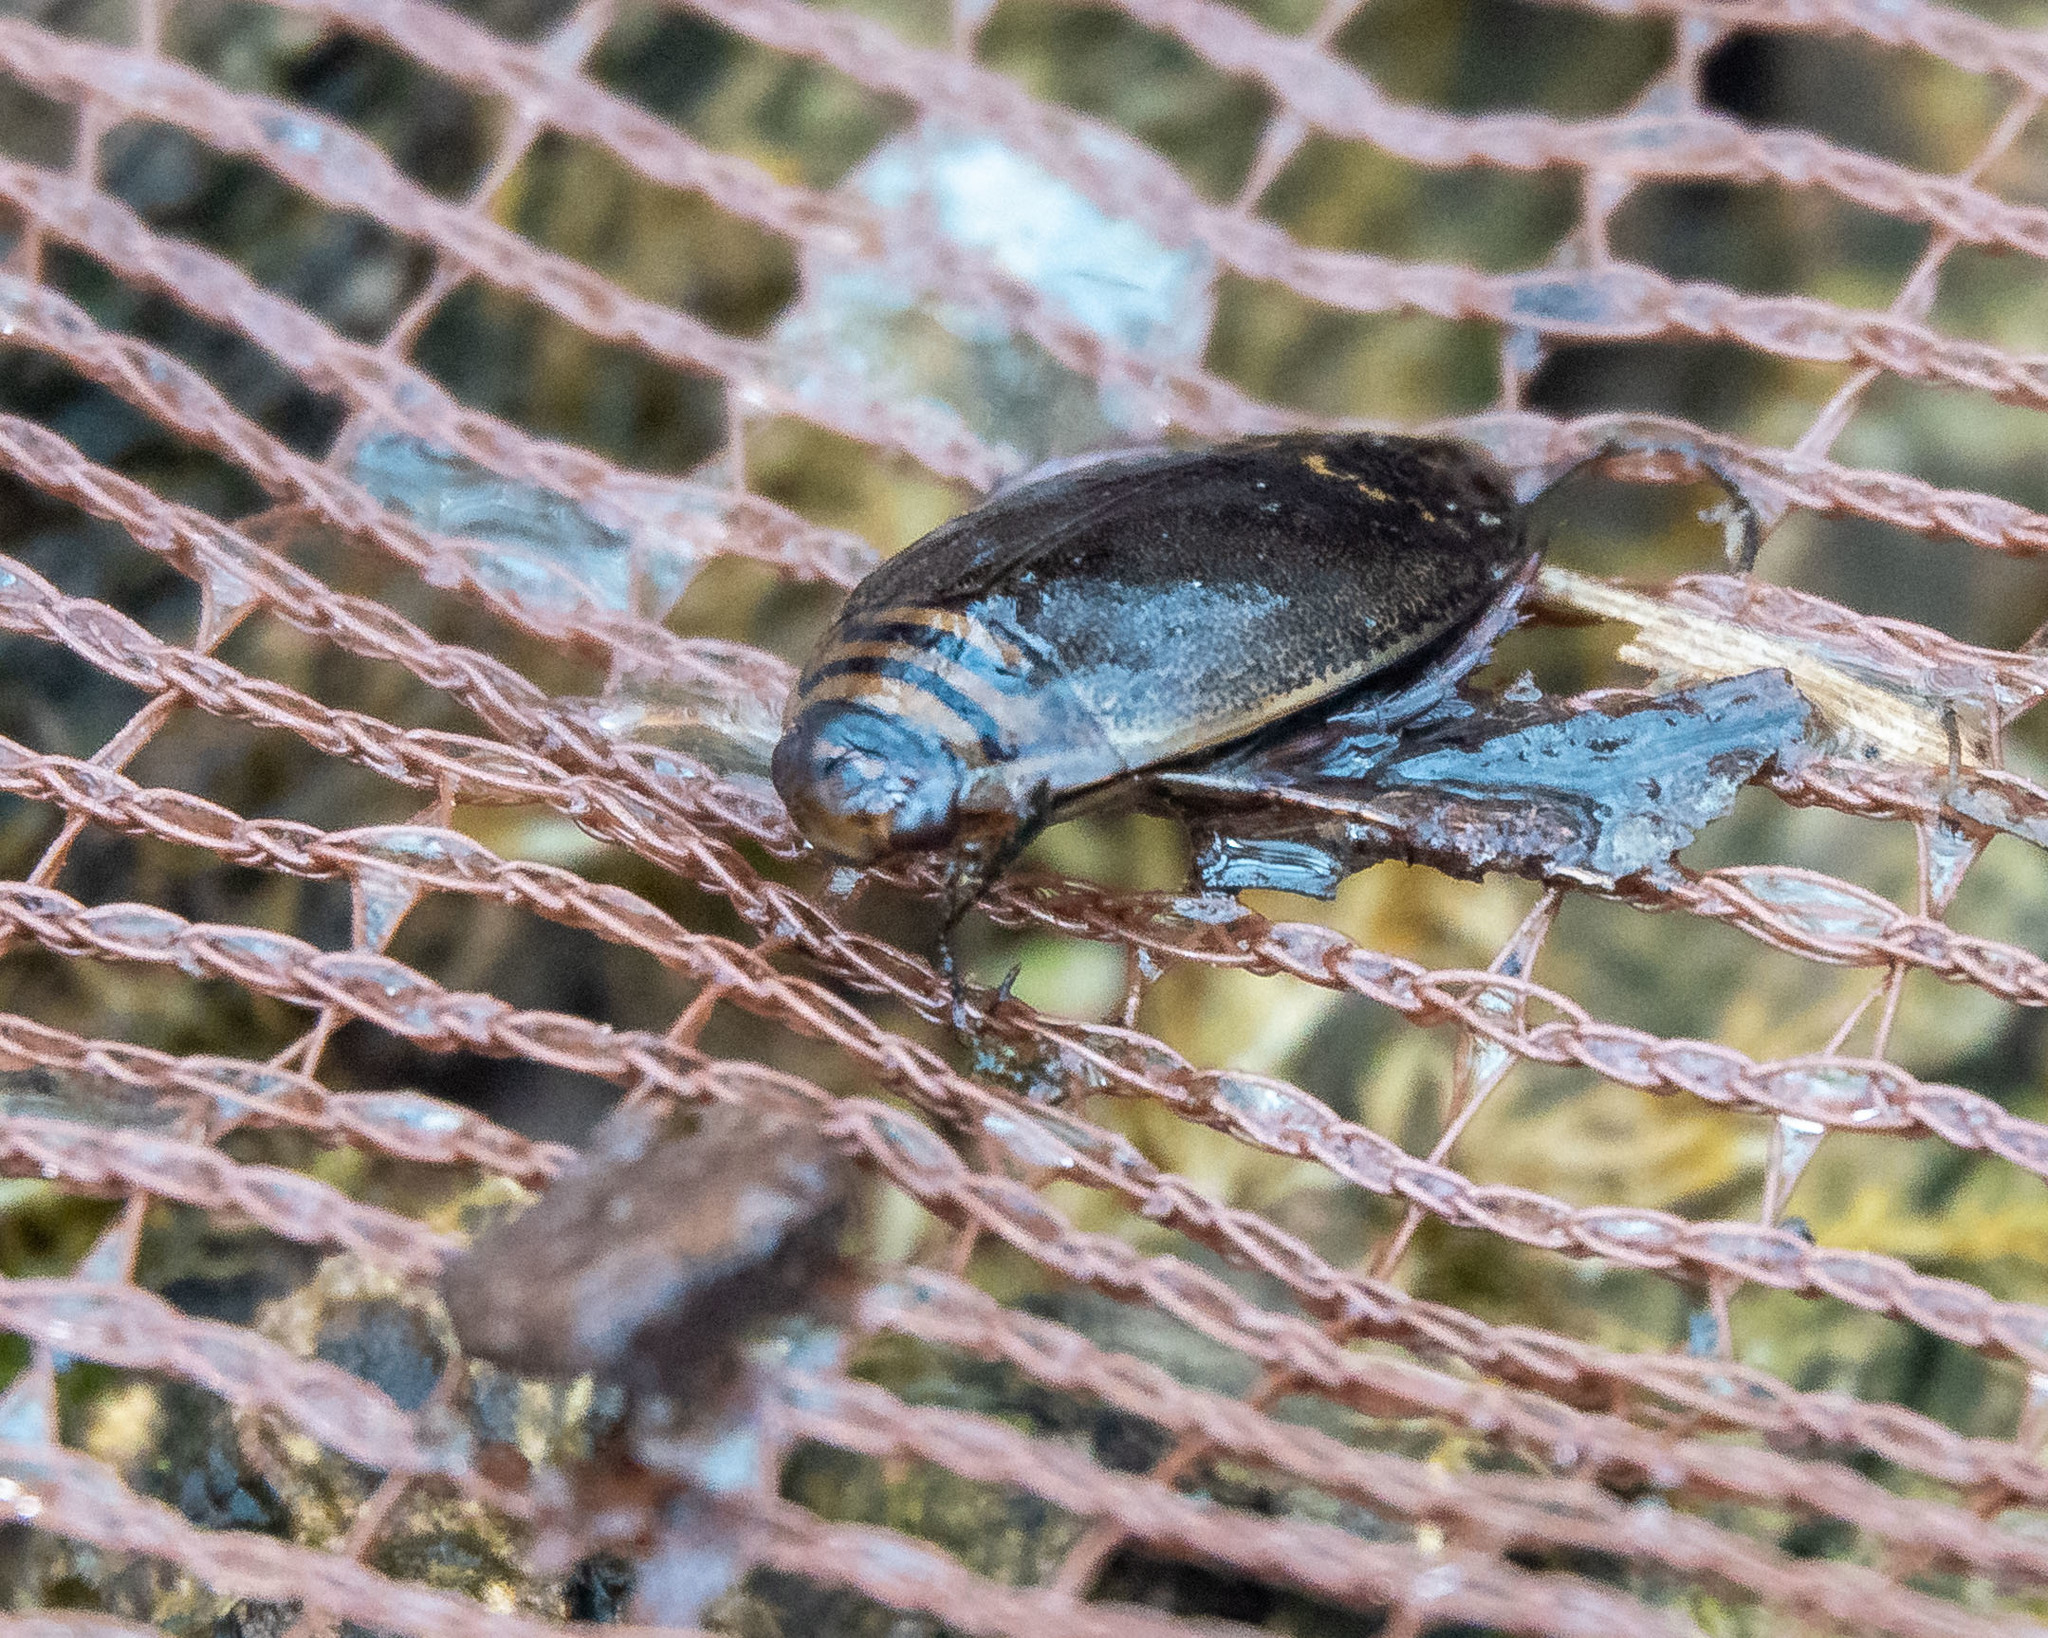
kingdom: Animalia
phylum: Arthropoda
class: Insecta
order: Coleoptera
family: Dytiscidae
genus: Acilius
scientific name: Acilius
